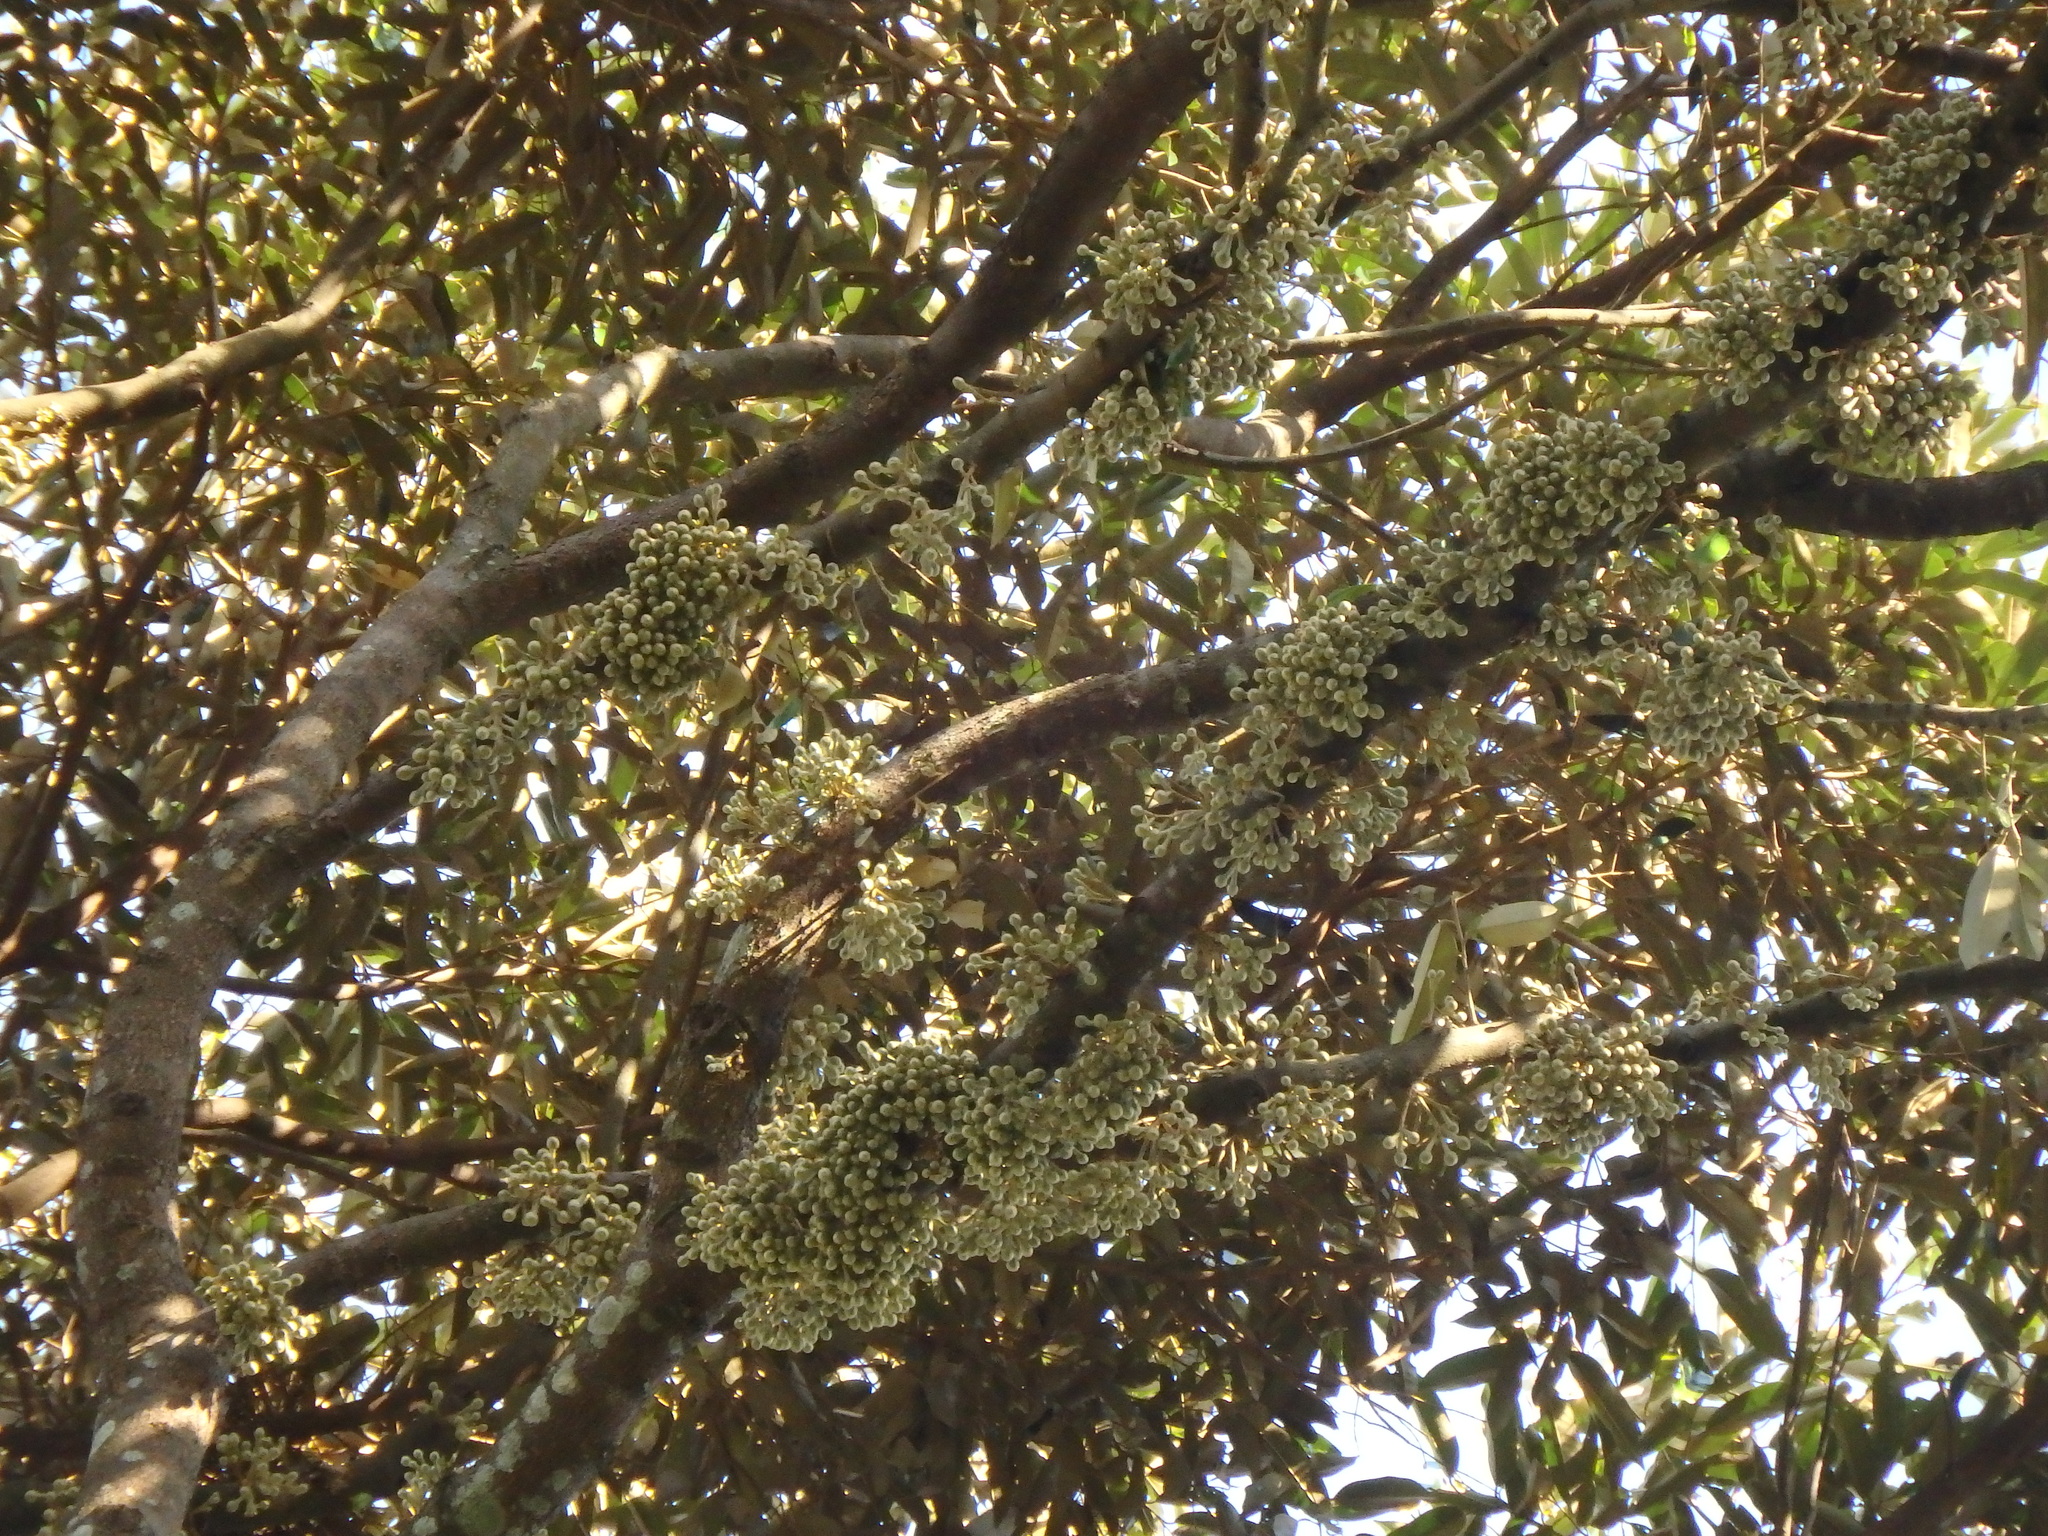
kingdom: Plantae
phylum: Tracheophyta
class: Magnoliopsida
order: Malvales
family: Malvaceae
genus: Durio
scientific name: Durio zibethinus
